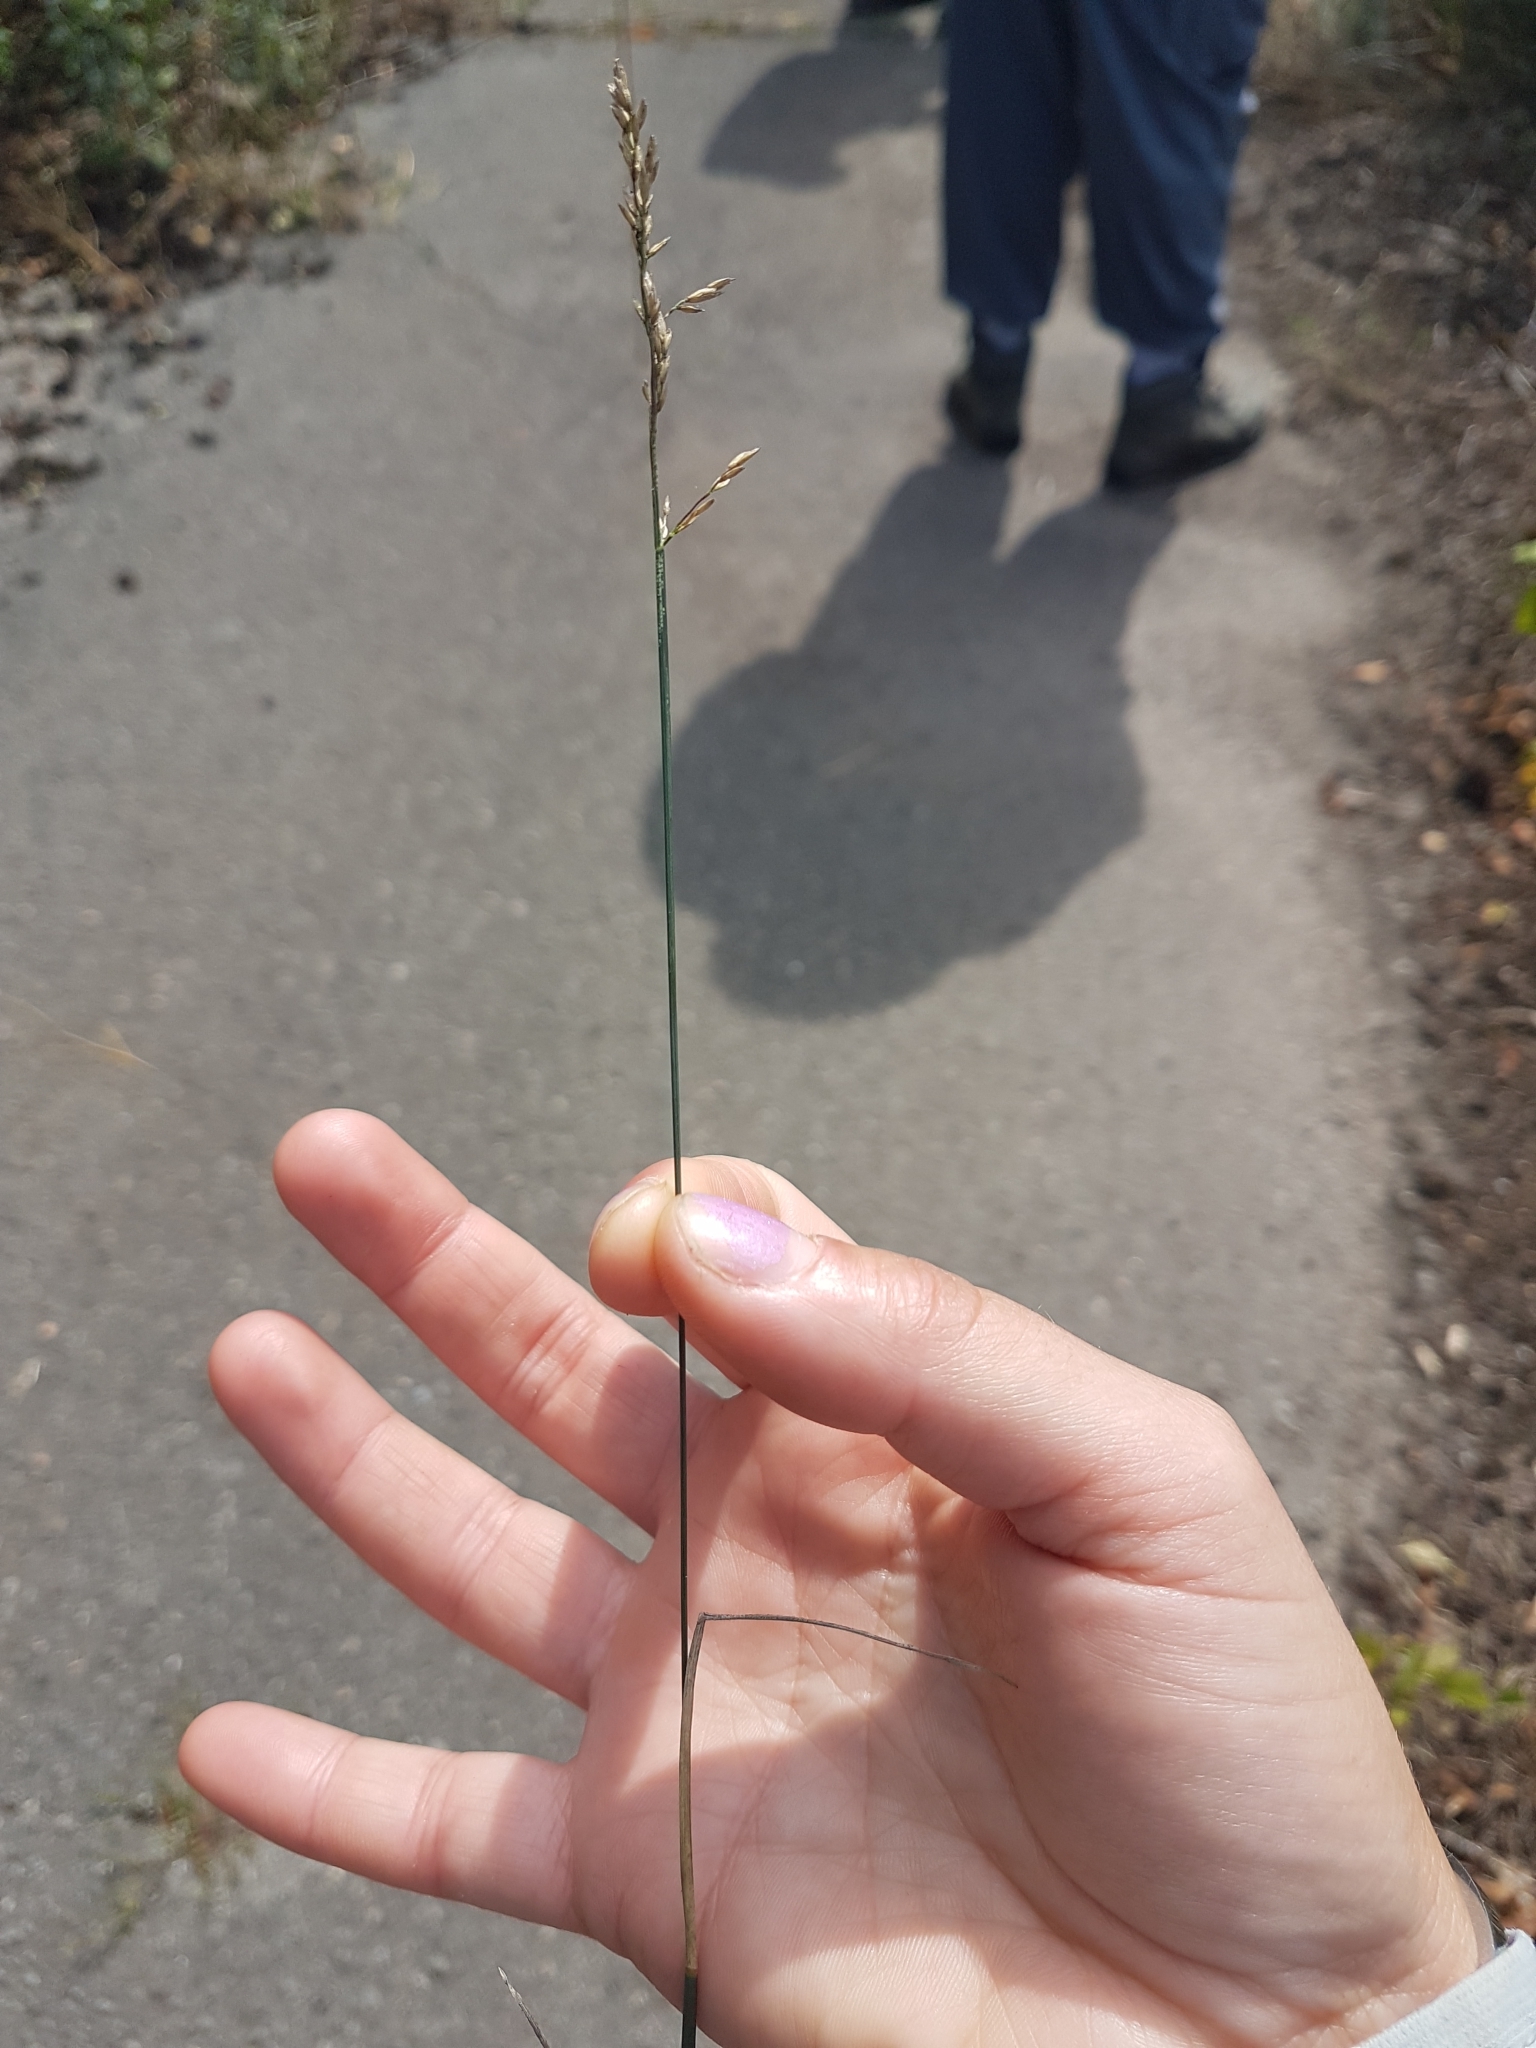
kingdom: Plantae
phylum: Tracheophyta
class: Liliopsida
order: Poales
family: Poaceae
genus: Poa
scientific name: Poa compressa
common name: Canada bluegrass
